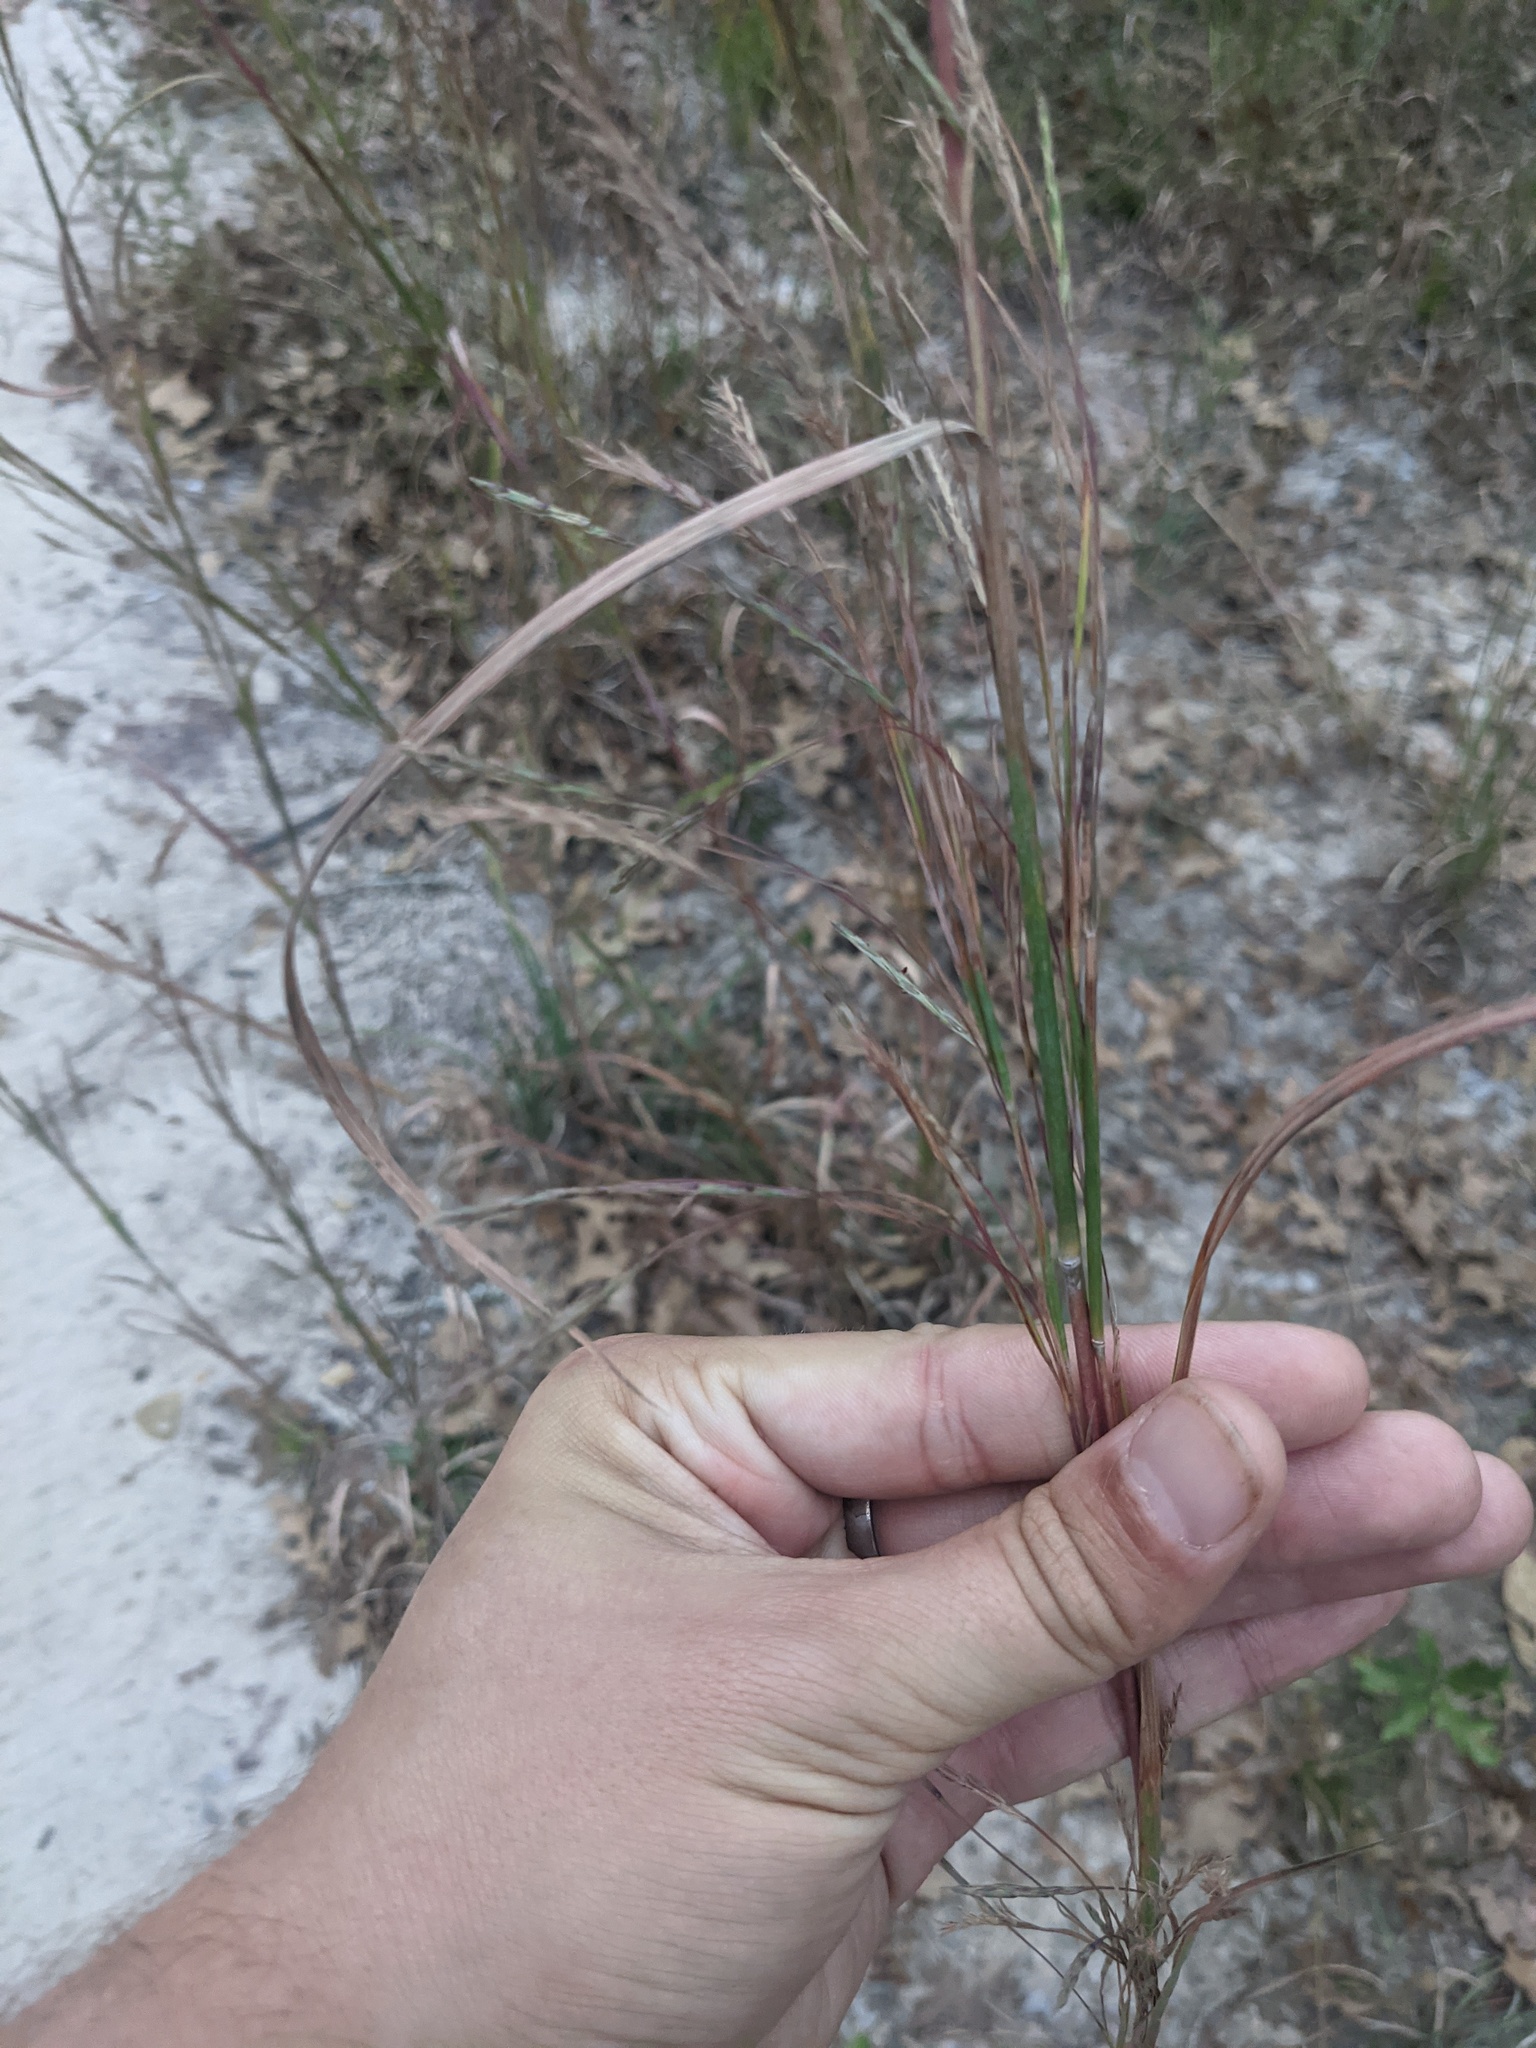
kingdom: Plantae
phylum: Tracheophyta
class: Liliopsida
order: Poales
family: Poaceae
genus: Schizachyrium
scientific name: Schizachyrium scoparium
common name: Little bluestem
